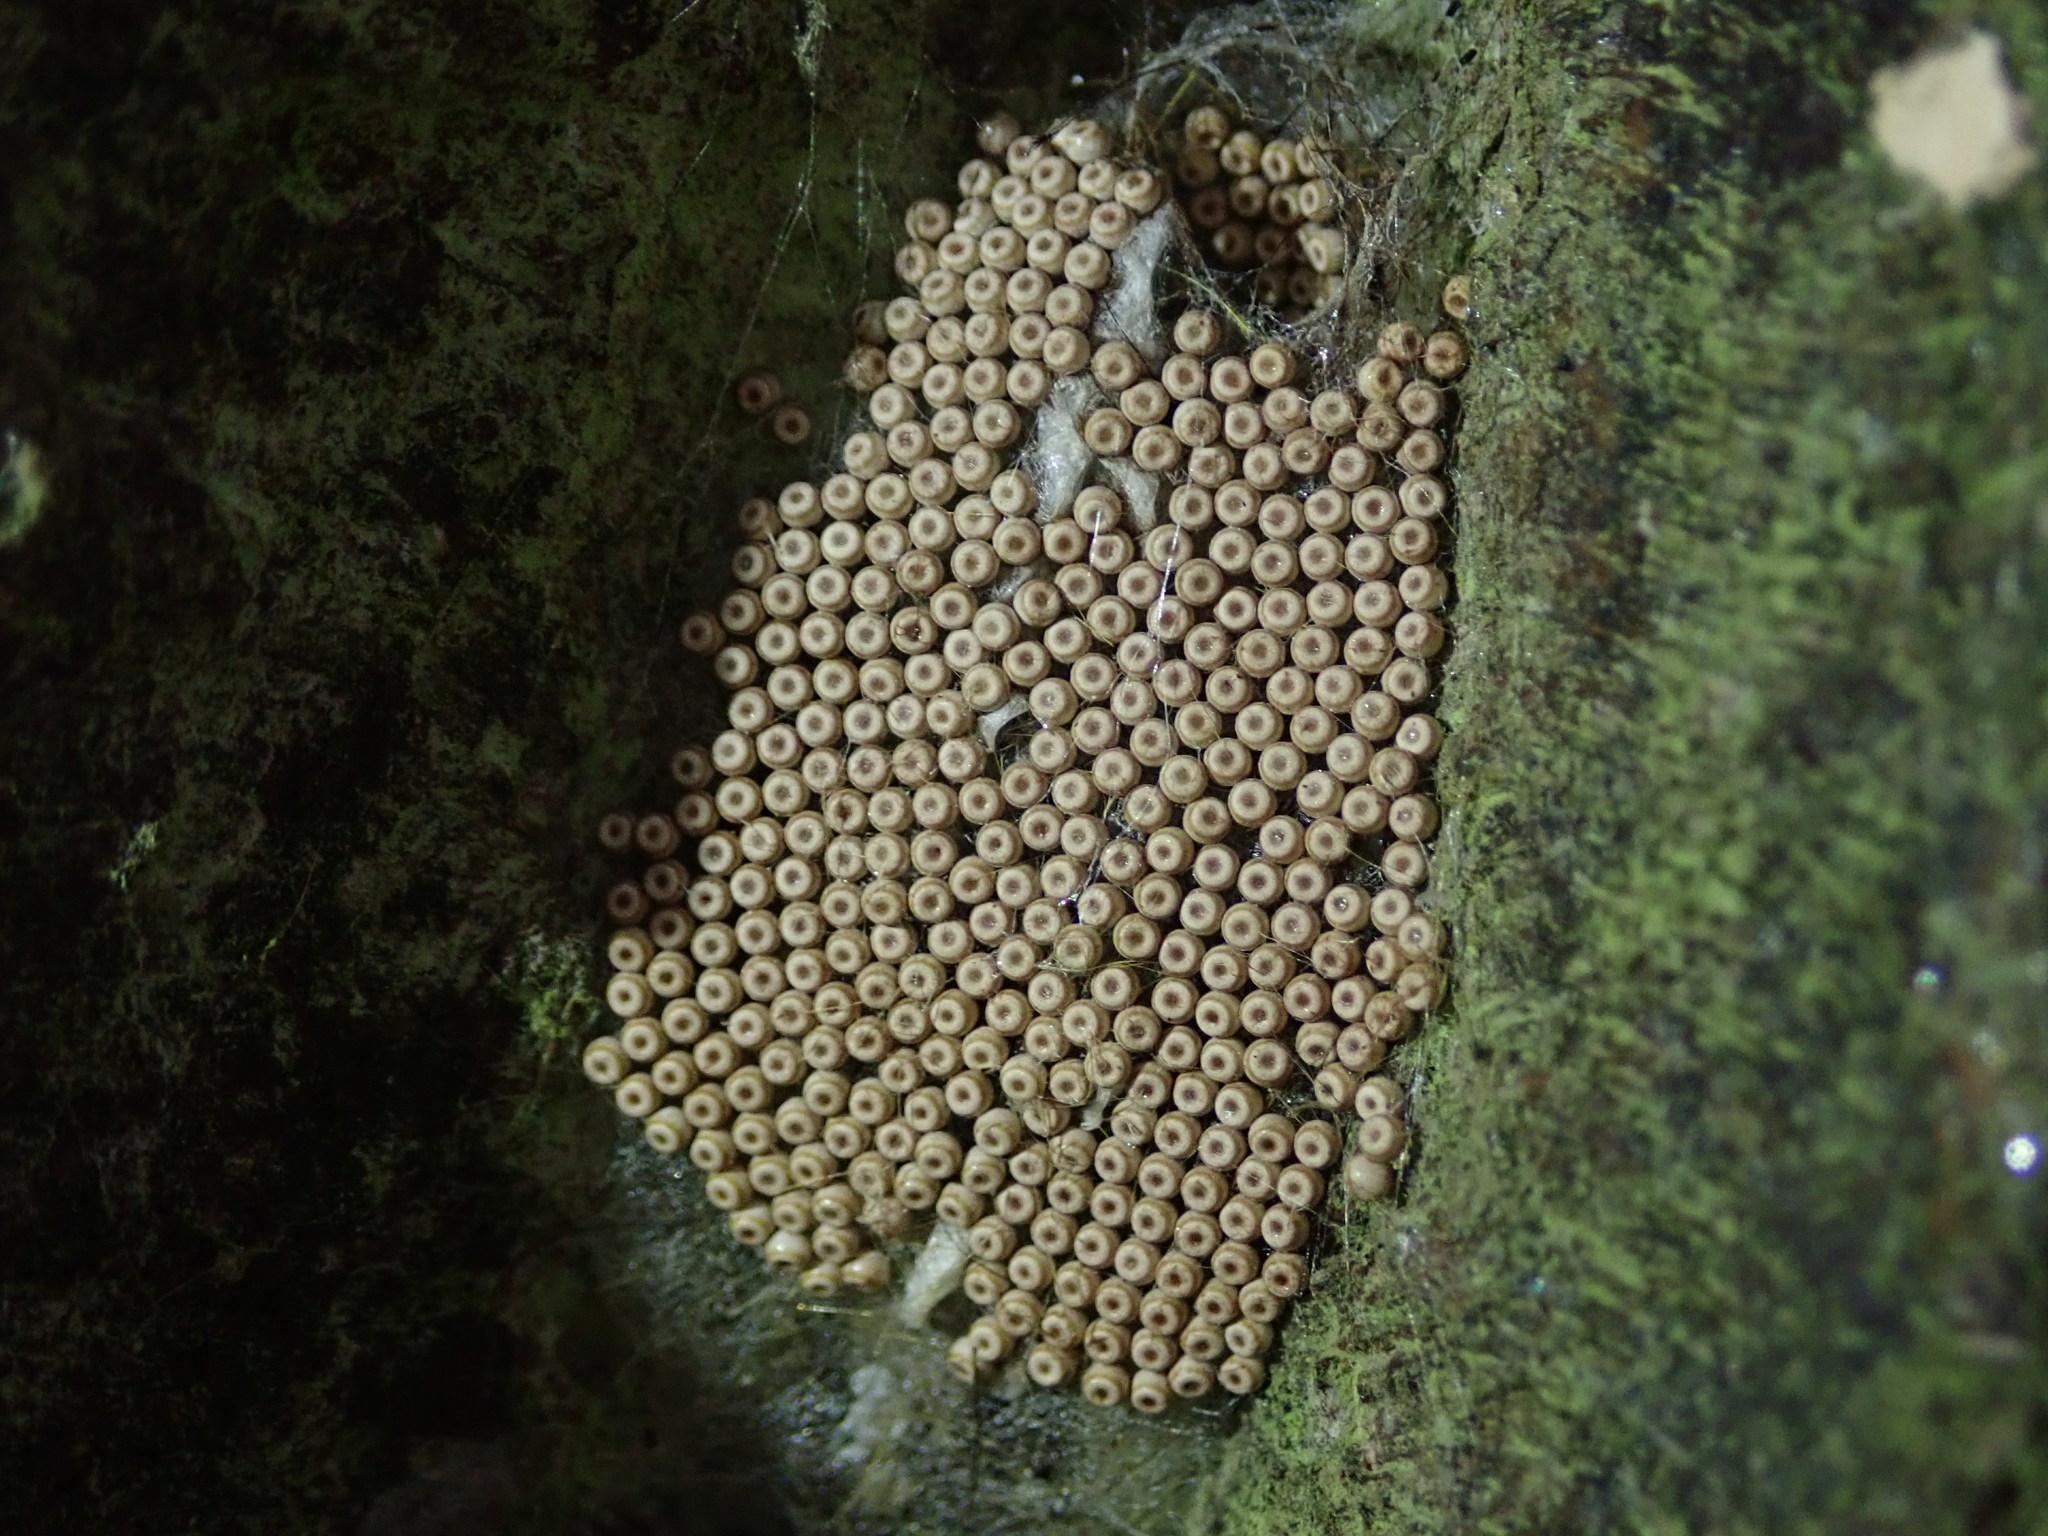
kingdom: Animalia
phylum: Arthropoda
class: Insecta
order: Lepidoptera
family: Erebidae
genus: Orgyia
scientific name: Orgyia antiqua
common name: Vapourer
